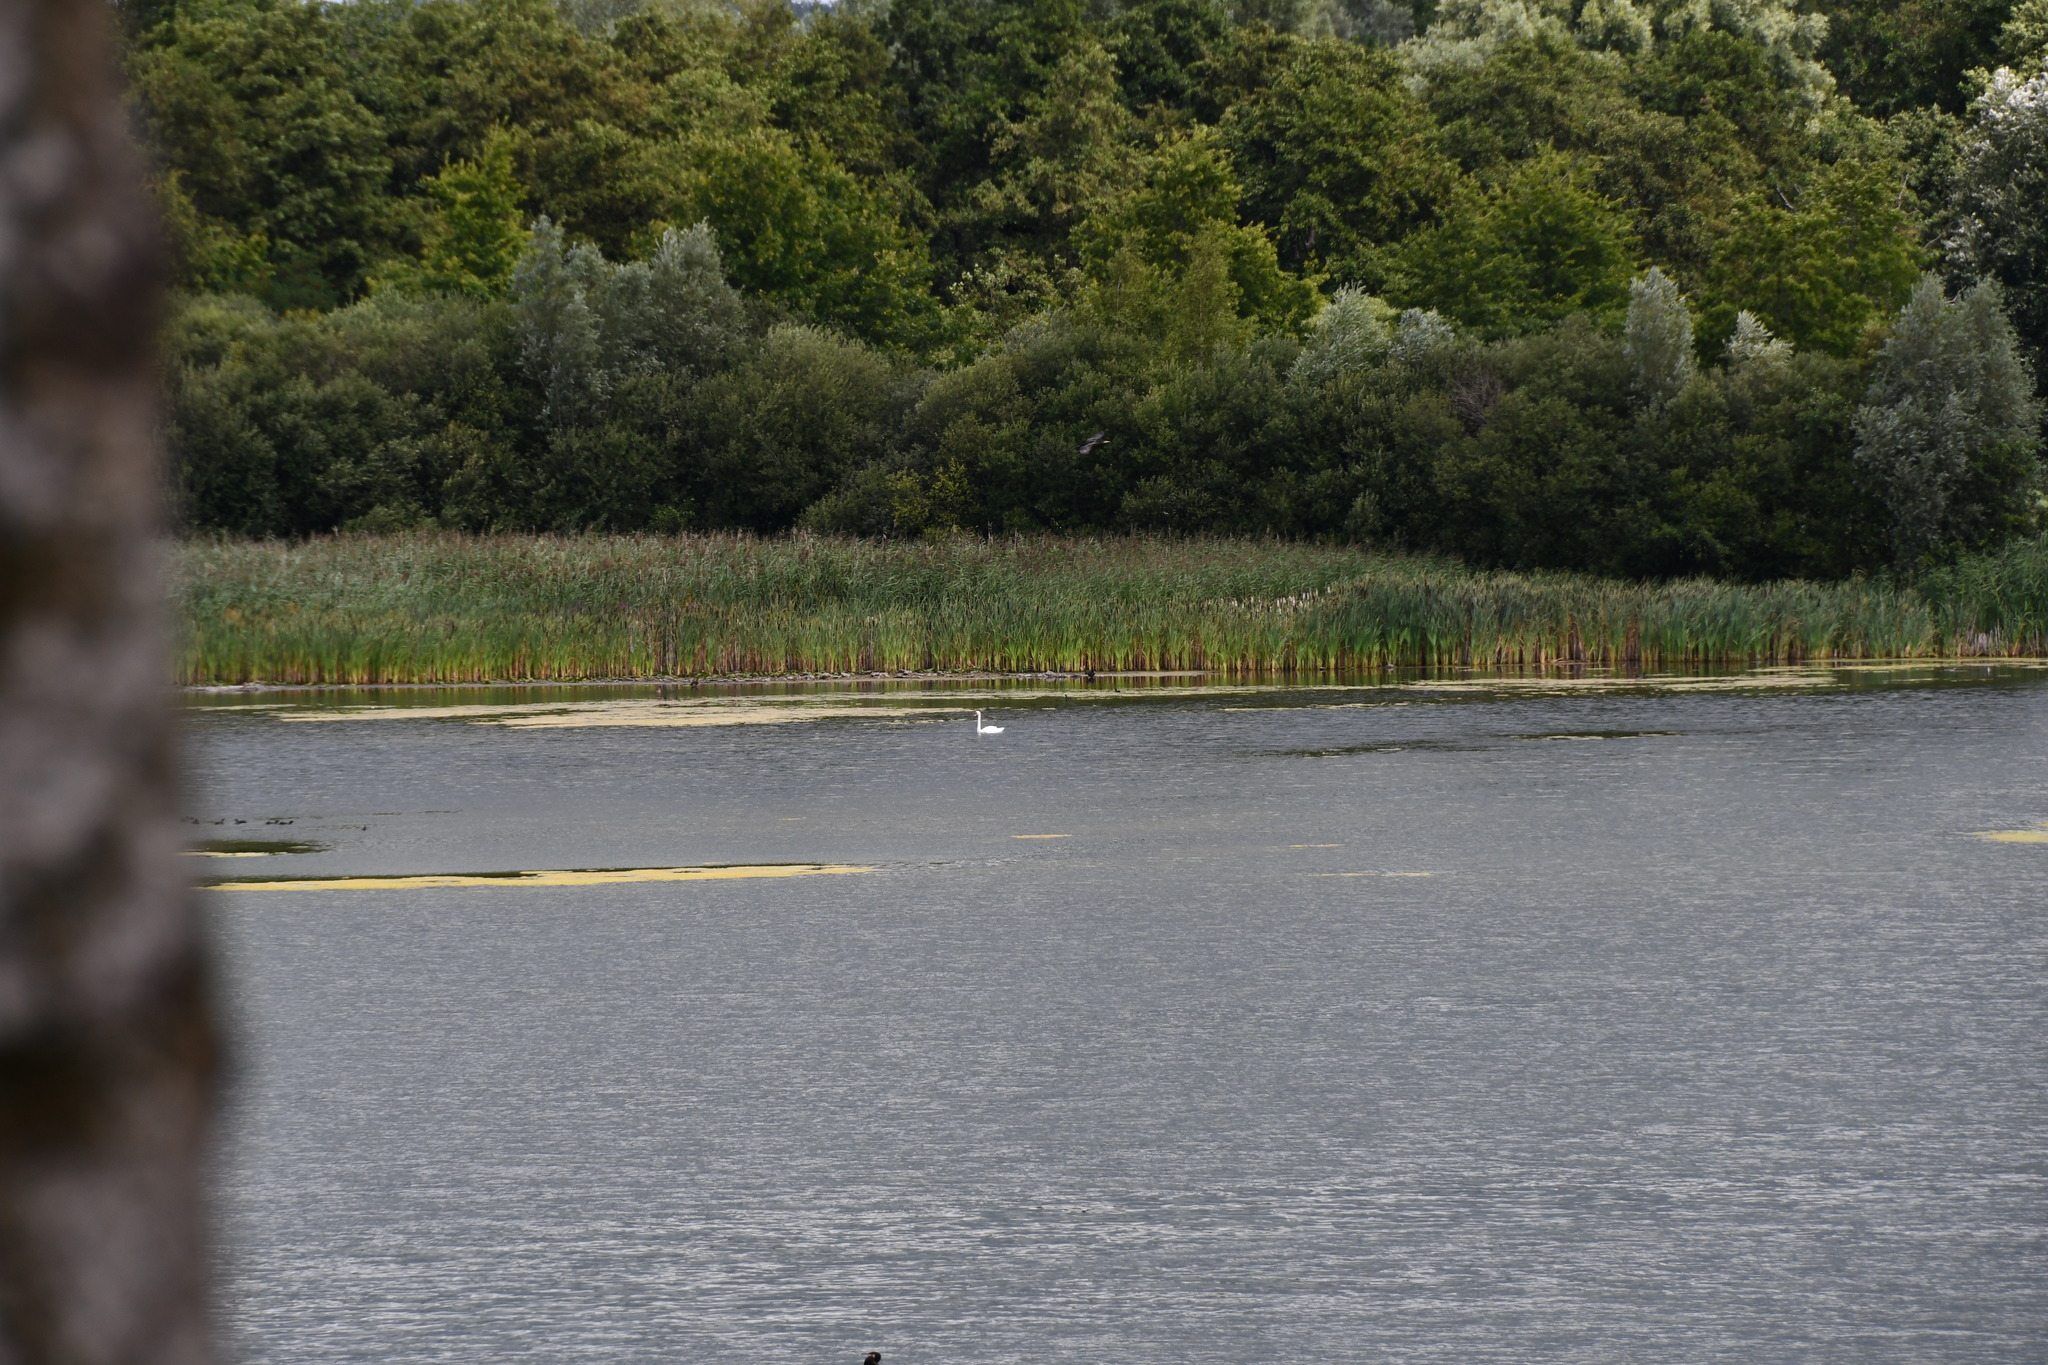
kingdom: Animalia
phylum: Chordata
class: Aves
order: Anseriformes
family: Anatidae
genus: Cygnus
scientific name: Cygnus olor
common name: Mute swan
